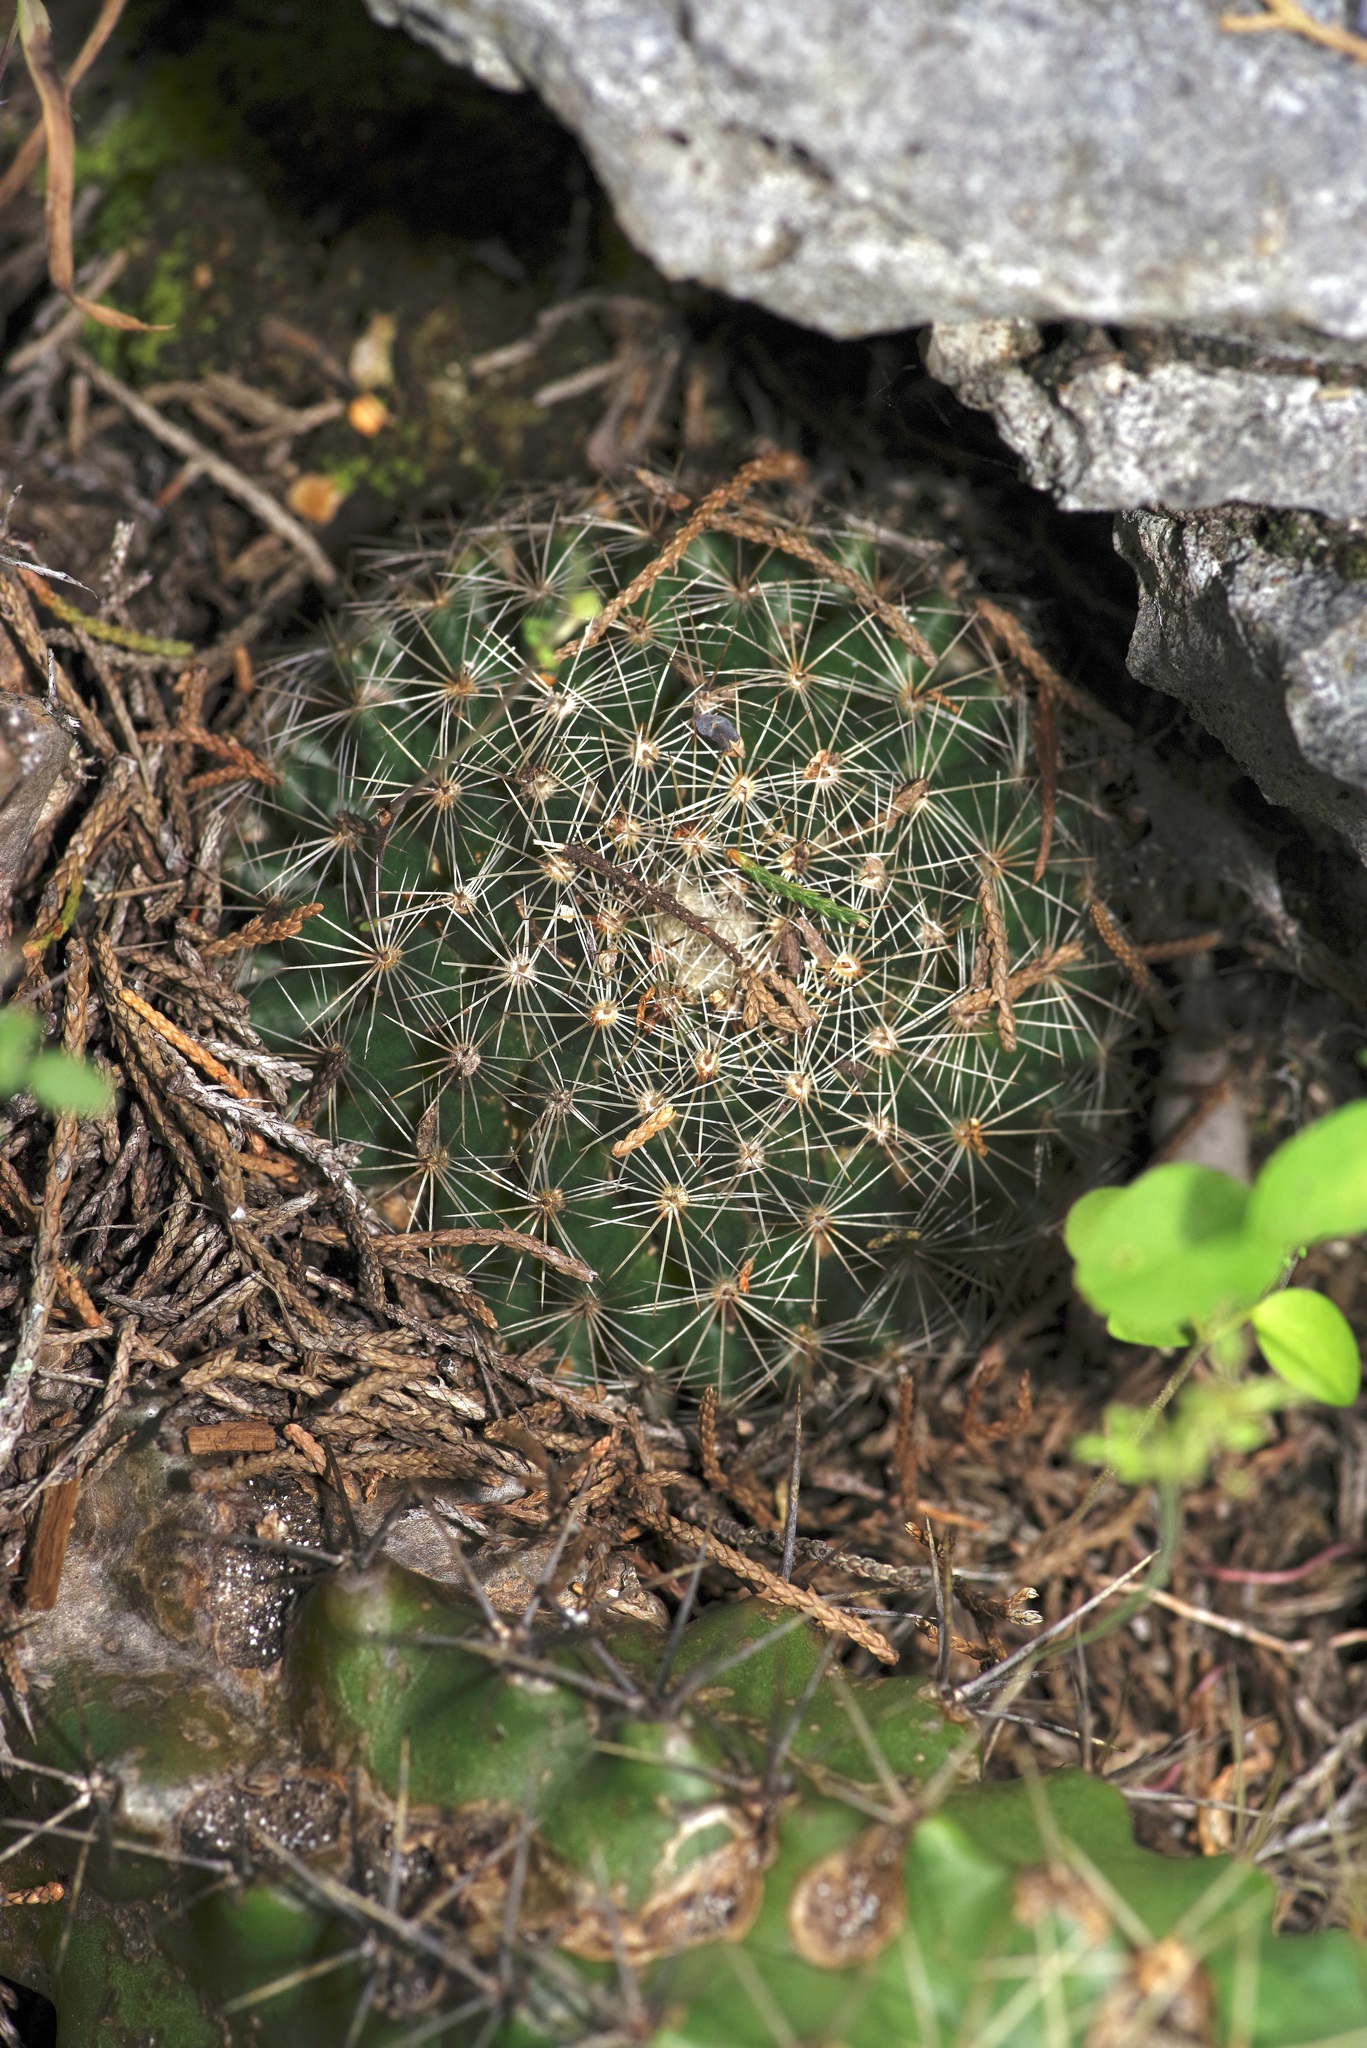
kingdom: Plantae
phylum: Tracheophyta
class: Magnoliopsida
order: Caryophyllales
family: Cactaceae
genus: Mammillaria
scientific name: Mammillaria heyderi
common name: Little nipple cactus
